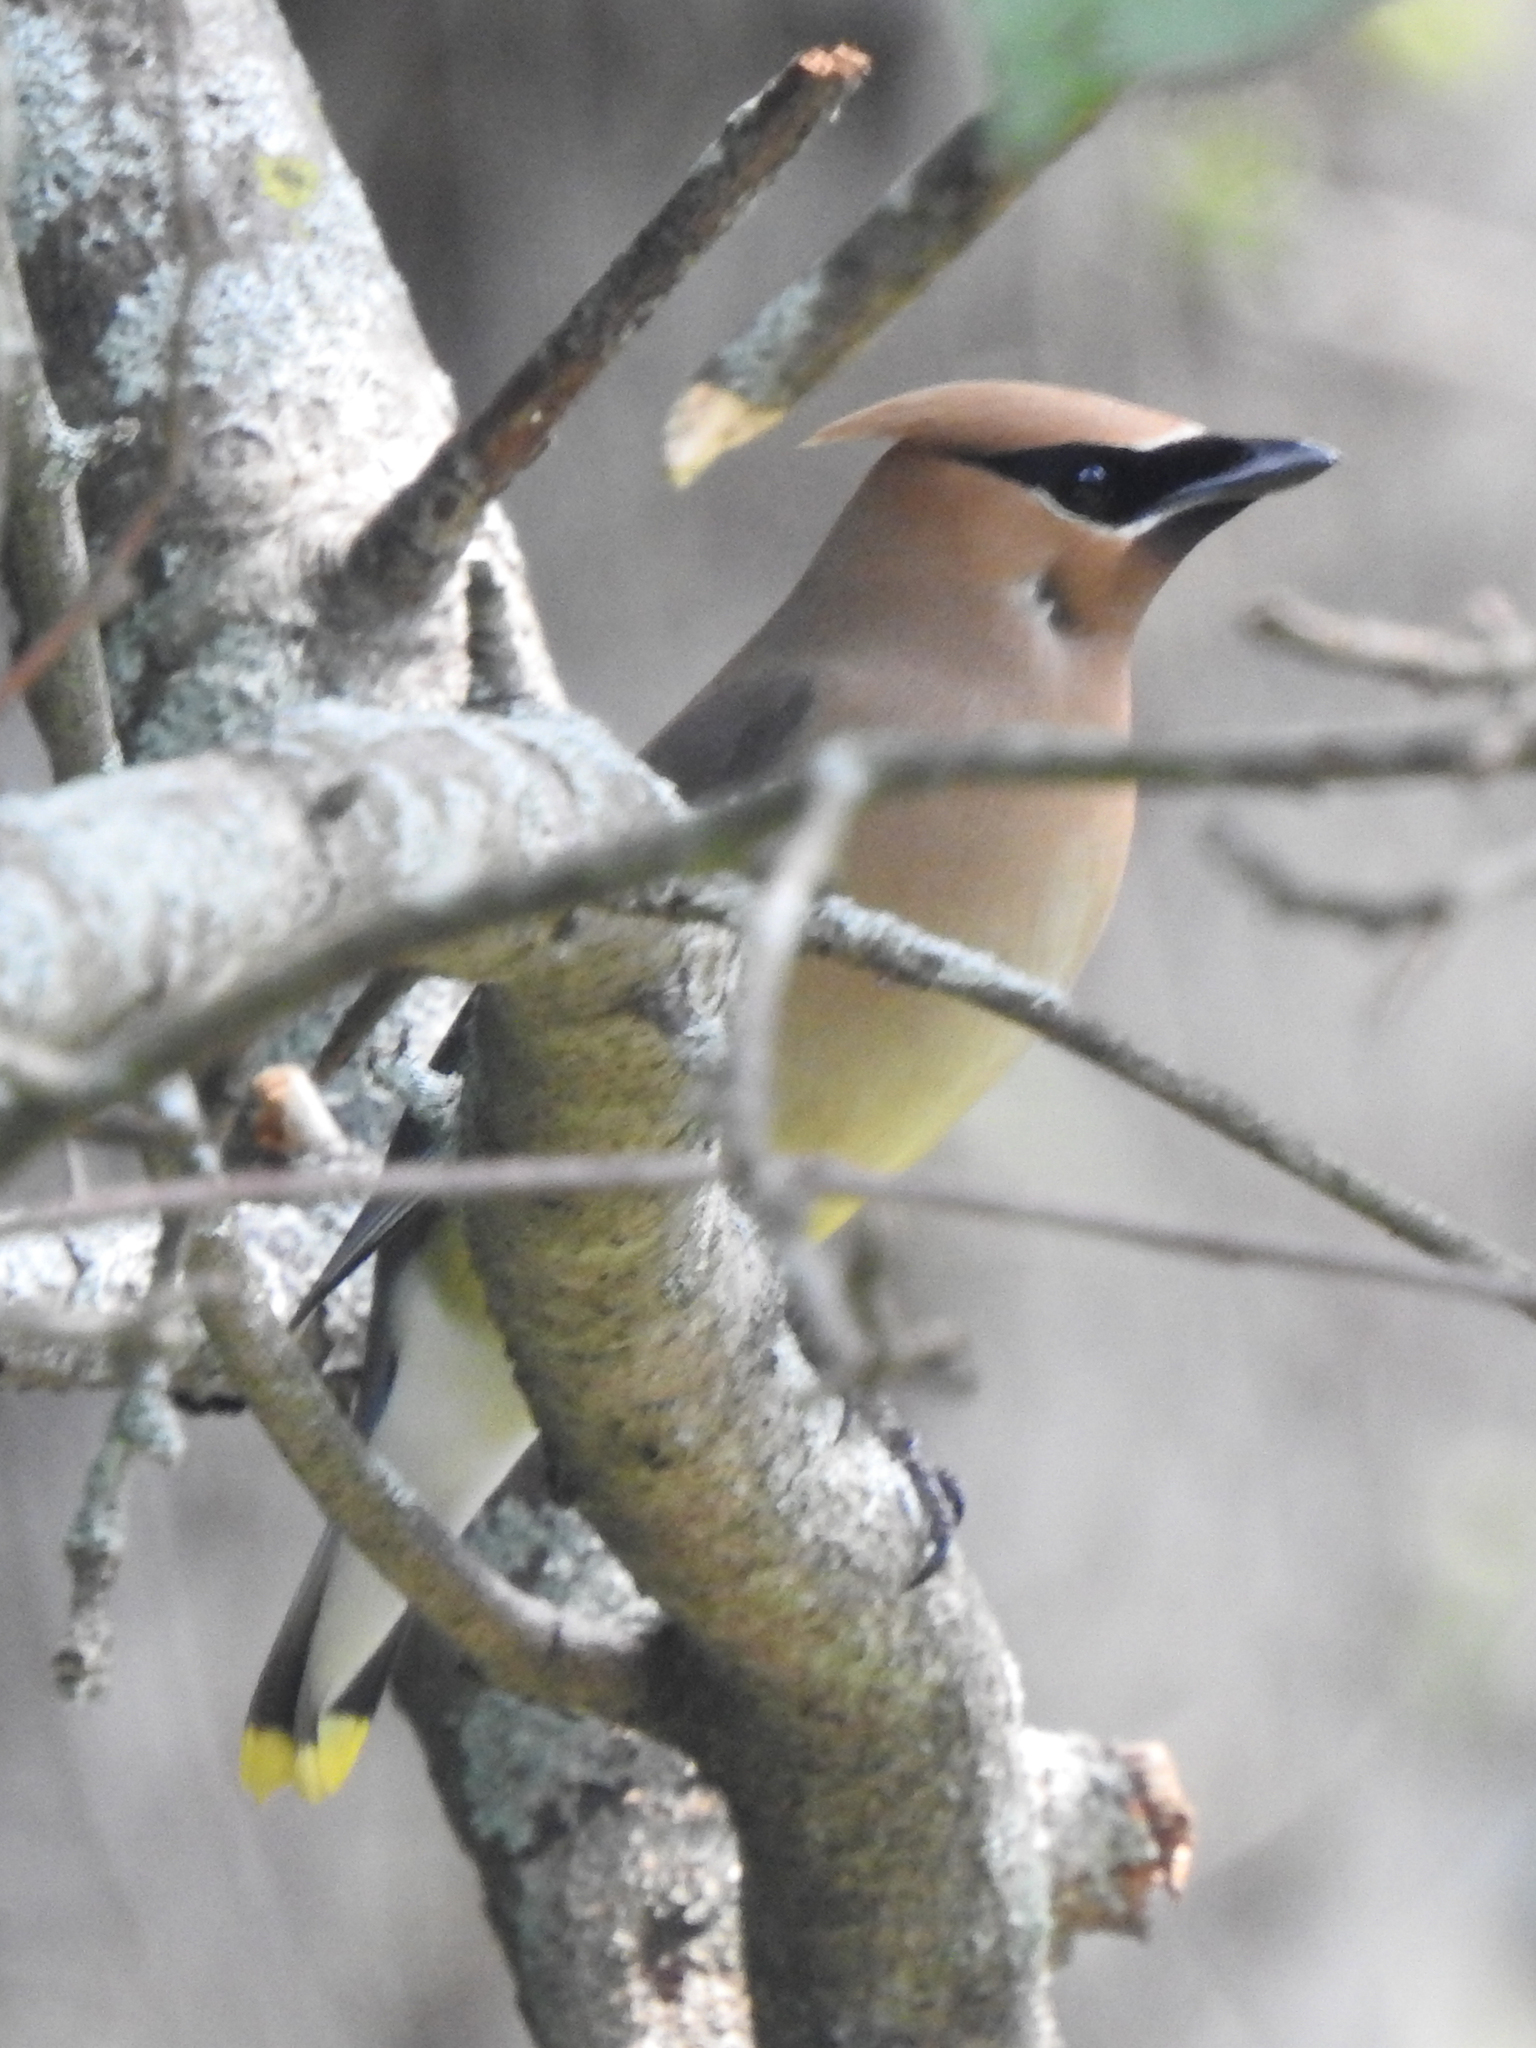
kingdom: Animalia
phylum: Chordata
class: Aves
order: Passeriformes
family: Bombycillidae
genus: Bombycilla
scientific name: Bombycilla cedrorum
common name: Cedar waxwing
